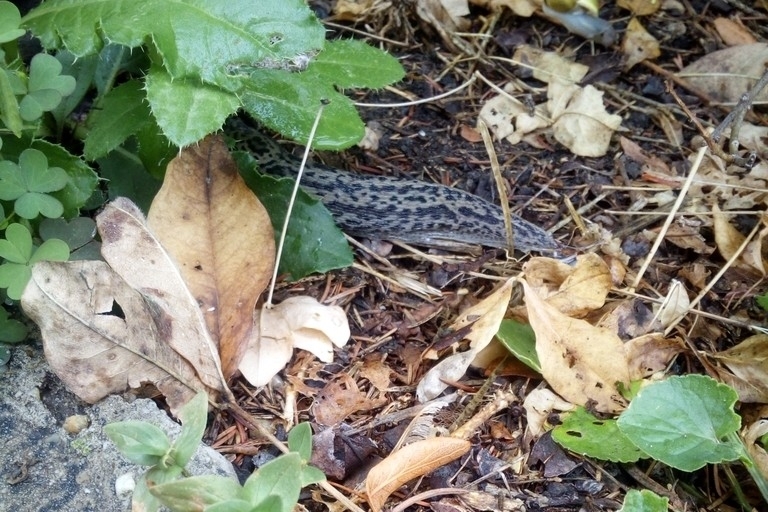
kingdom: Animalia
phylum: Mollusca
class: Gastropoda
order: Stylommatophora
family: Limacidae
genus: Limax
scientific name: Limax maximus
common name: Great grey slug
